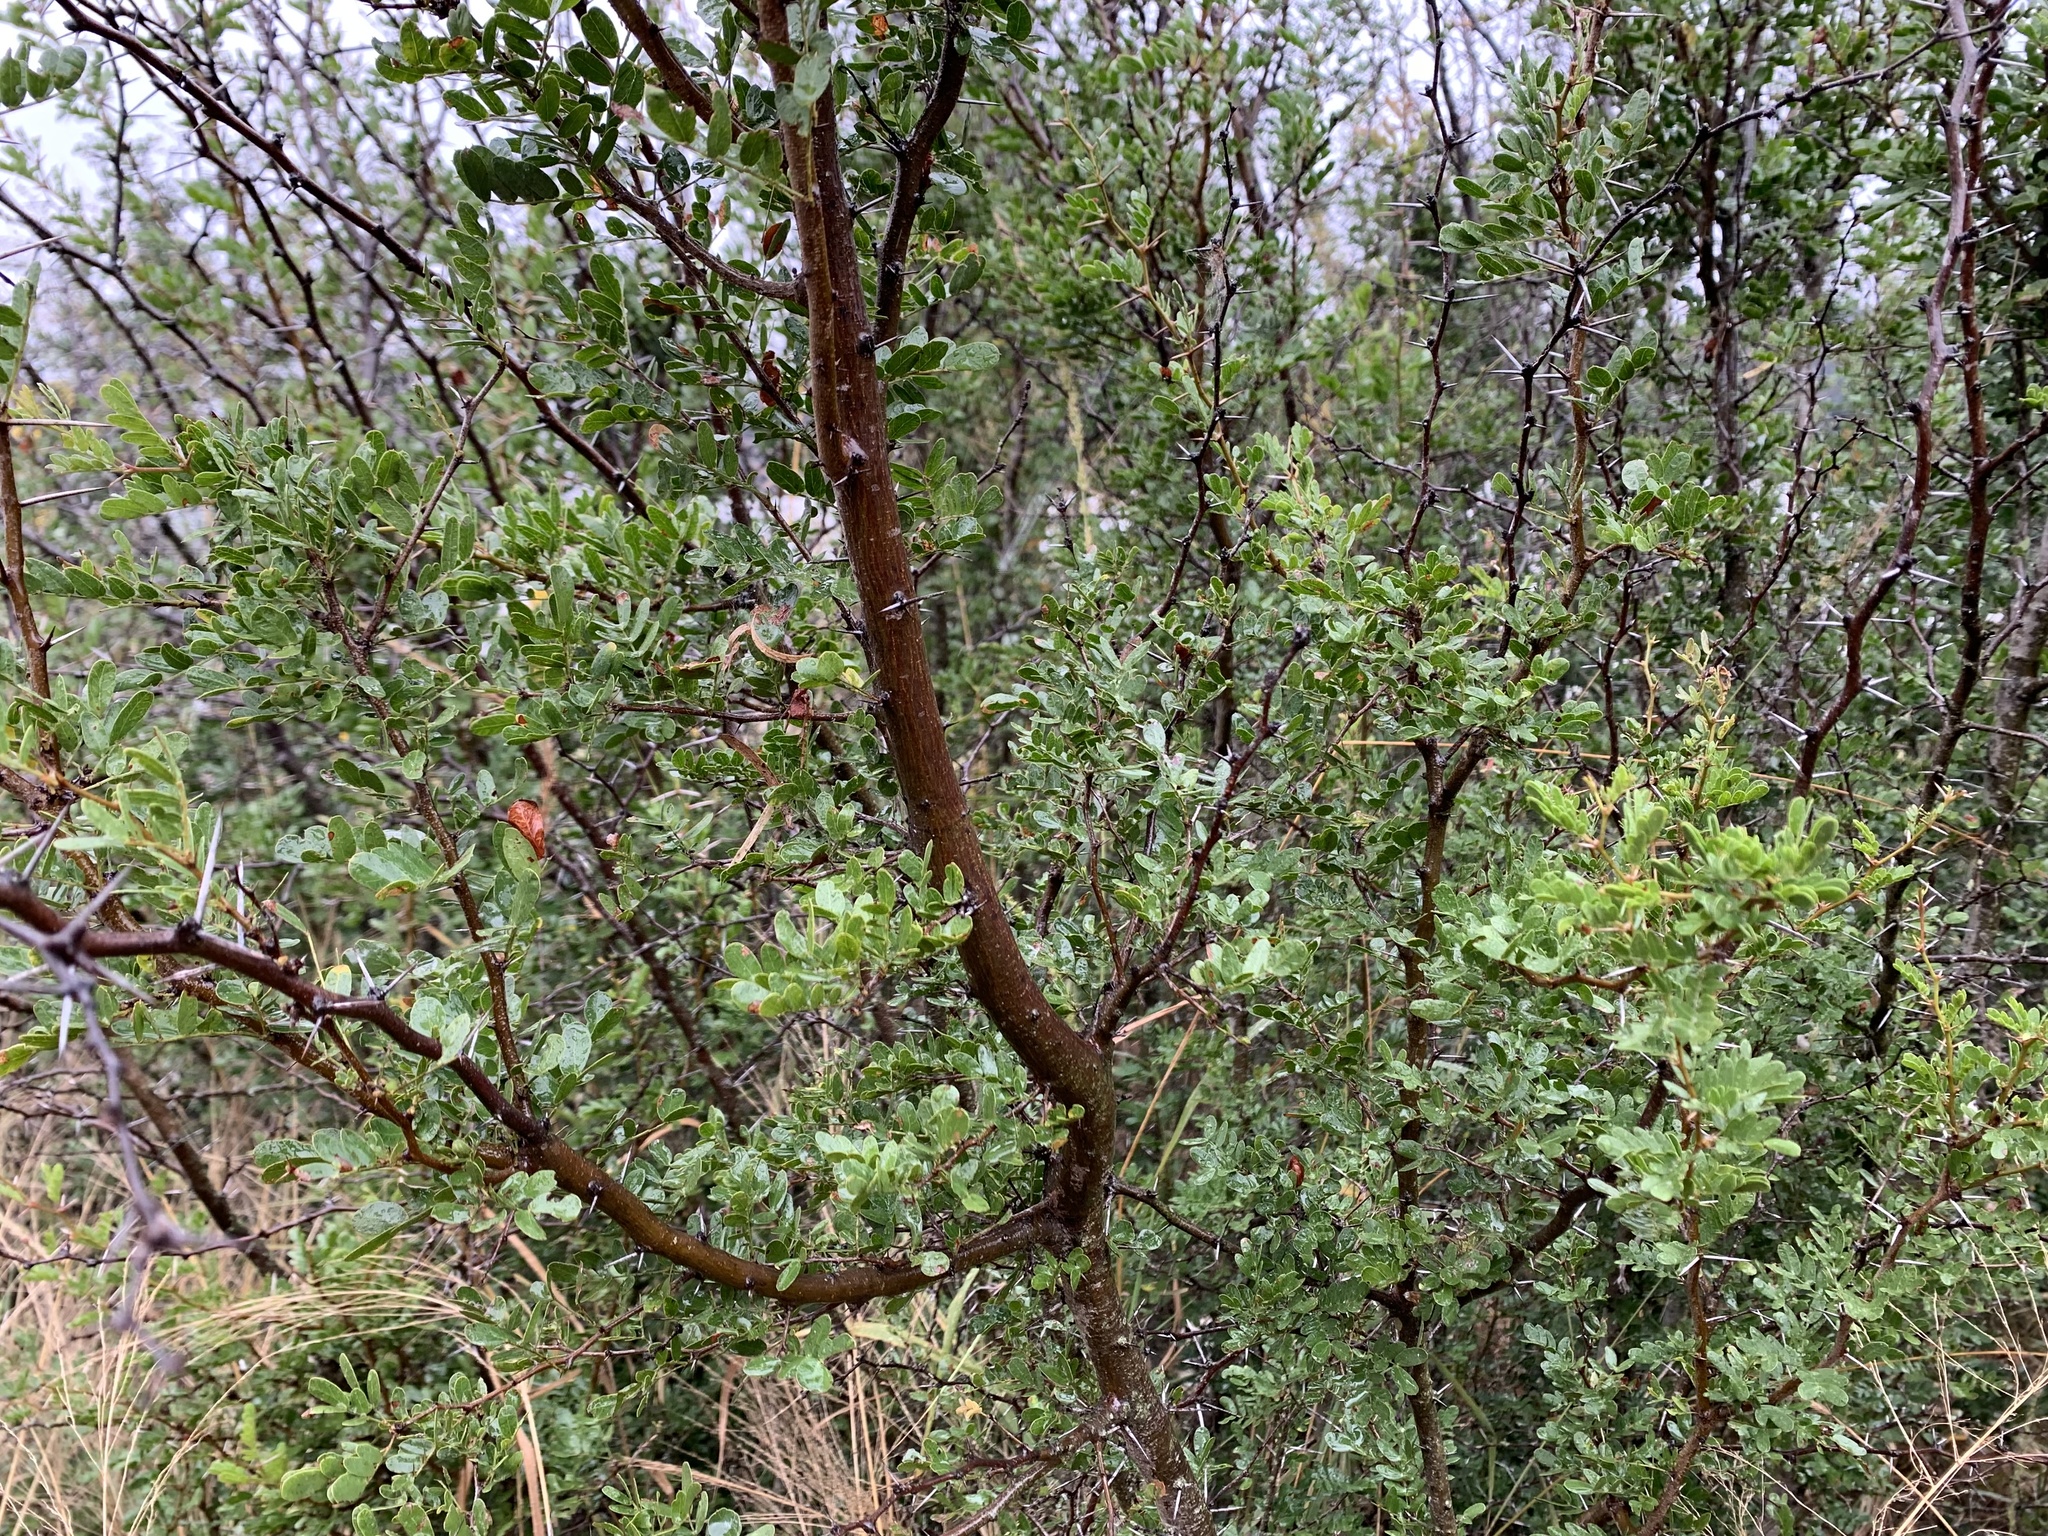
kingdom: Plantae
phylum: Tracheophyta
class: Magnoliopsida
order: Fabales
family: Fabaceae
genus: Vachellia
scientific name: Vachellia rigidula
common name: Blackbrush
